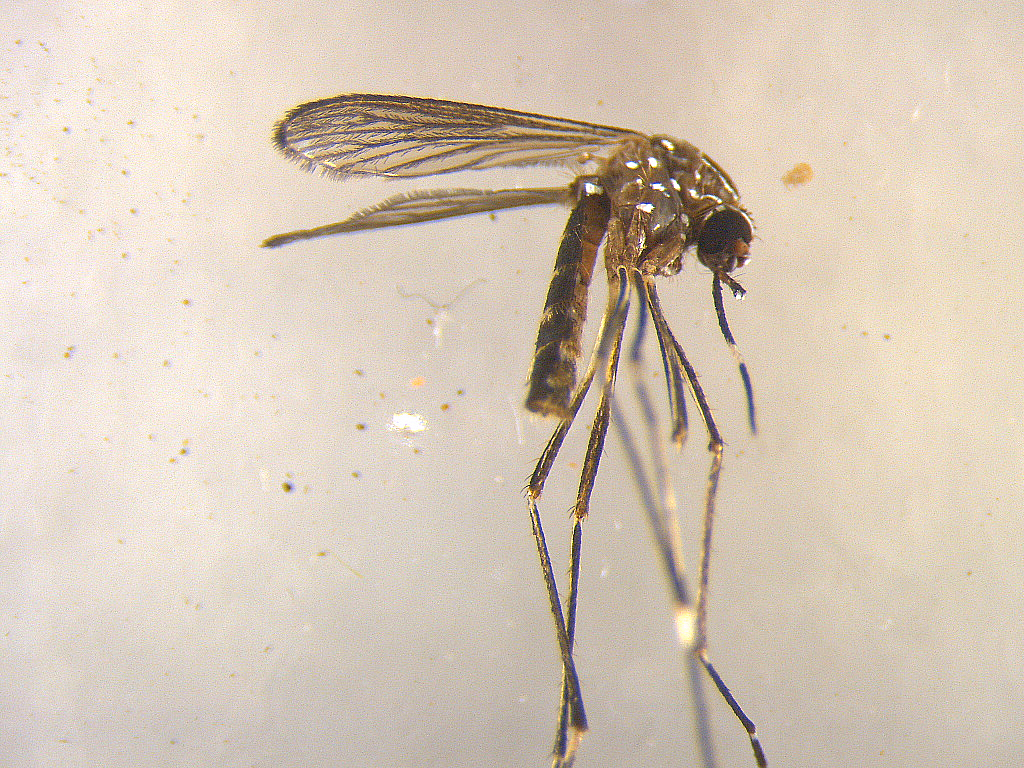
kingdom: Animalia
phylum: Arthropoda
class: Insecta
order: Diptera
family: Culicidae
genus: Aedes
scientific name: Aedes notoscriptus
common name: Australian backyard mosquito
